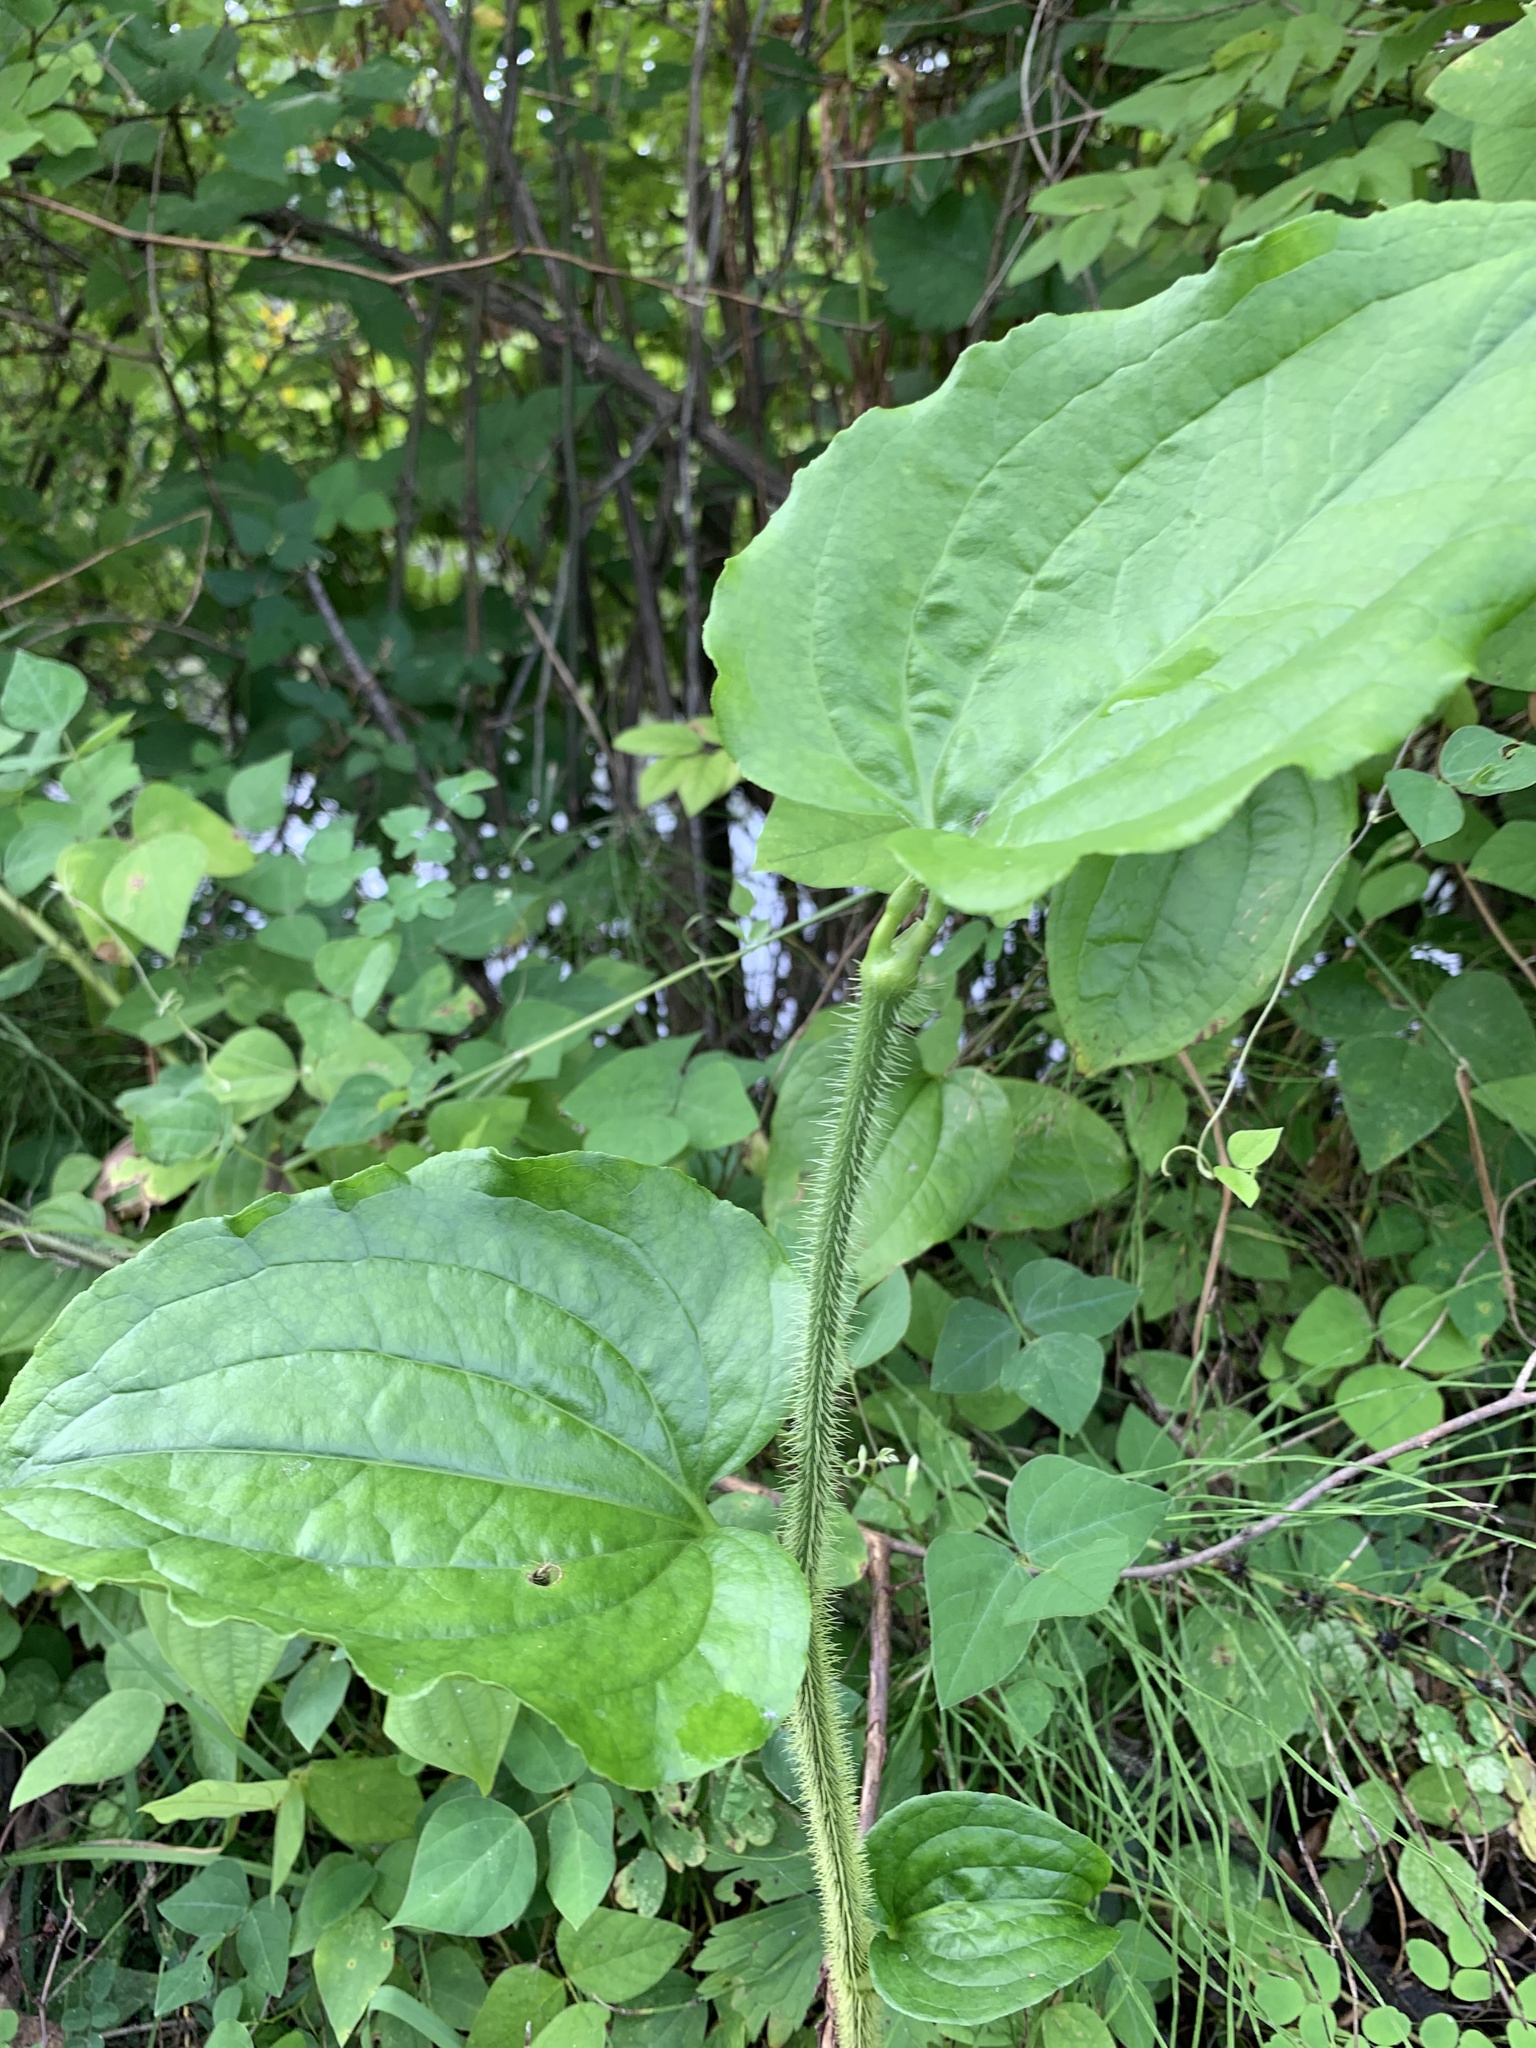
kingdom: Plantae
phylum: Tracheophyta
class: Liliopsida
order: Liliales
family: Smilacaceae
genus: Smilax
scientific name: Smilax tamnoides
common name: Hellfetter
